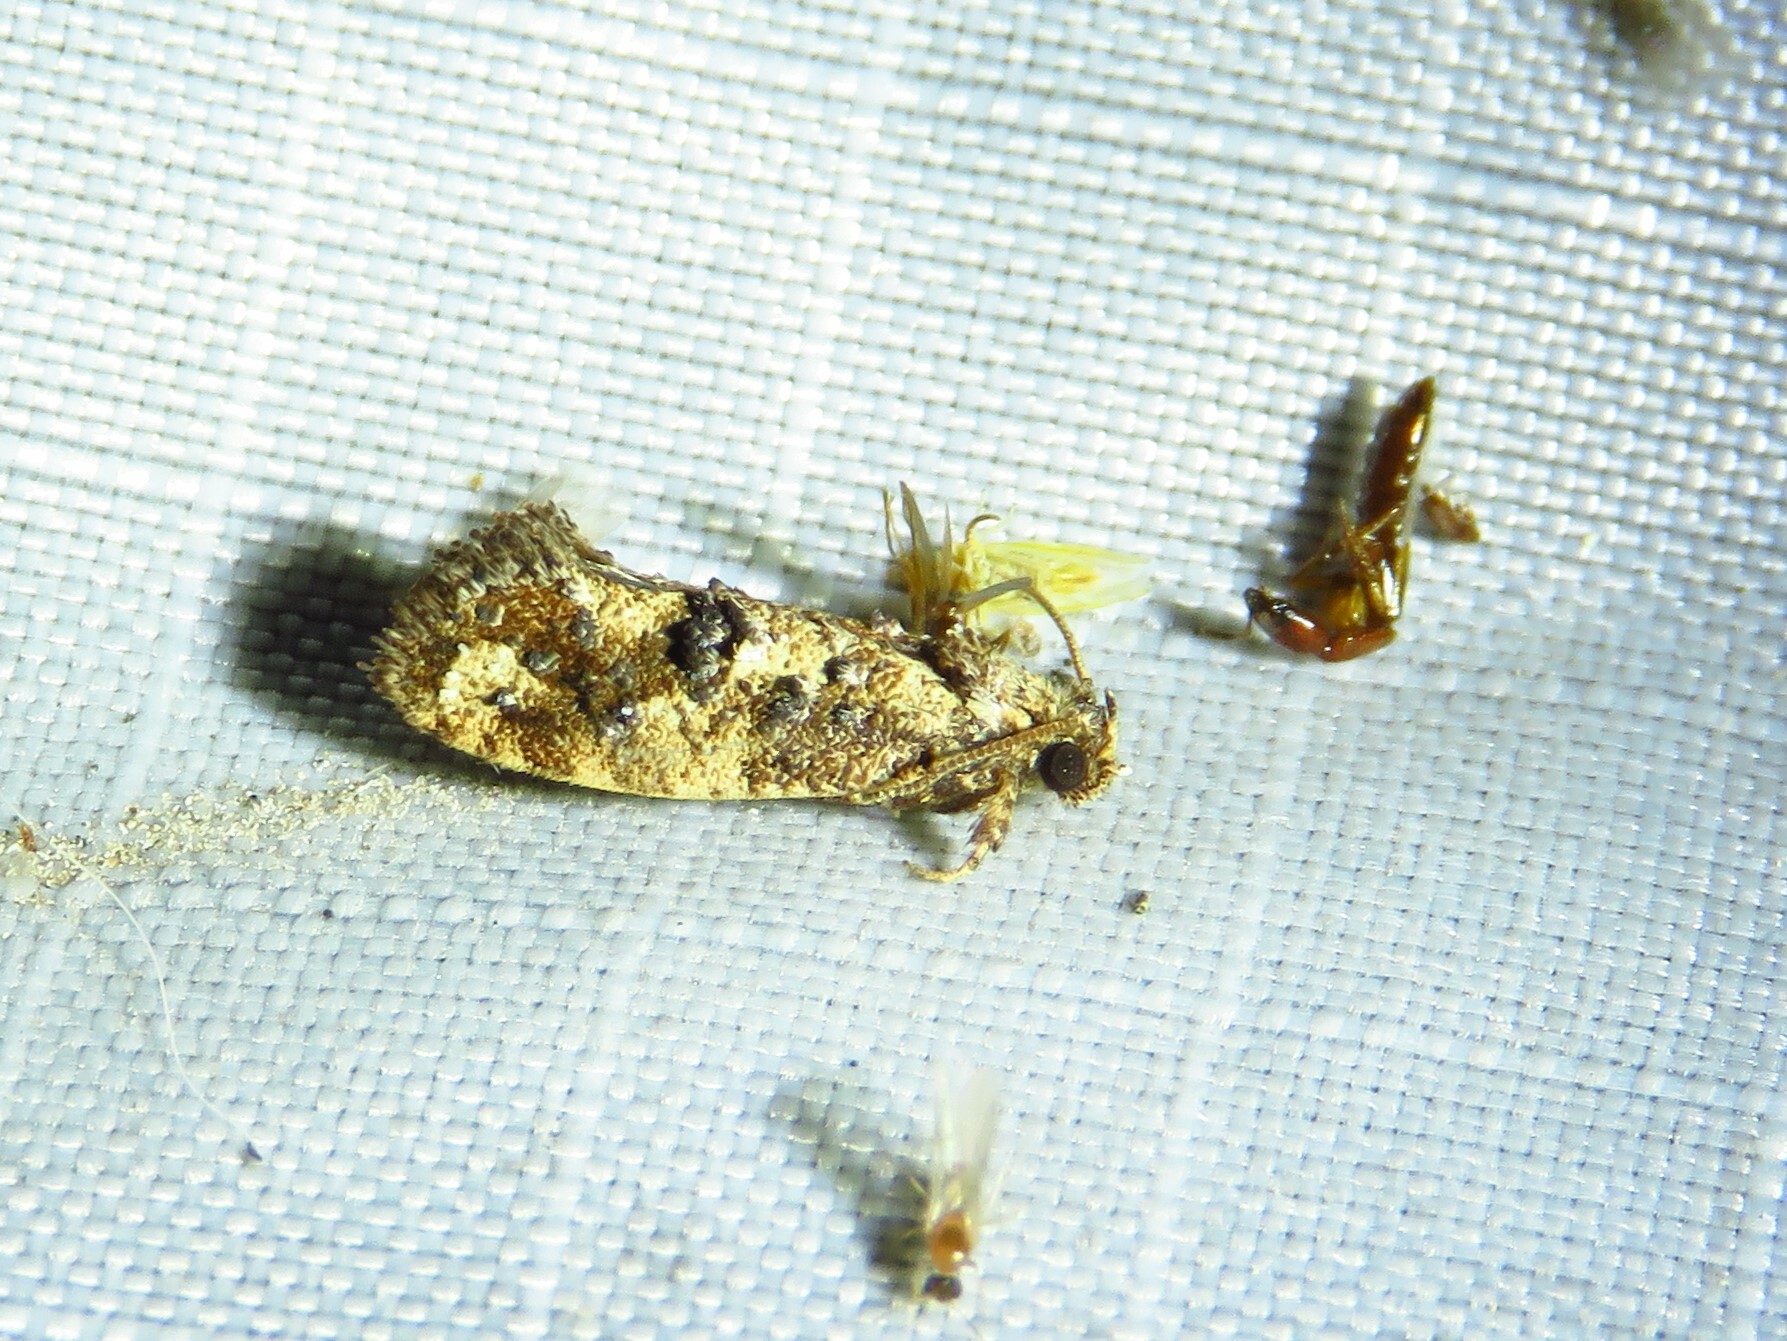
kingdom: Animalia
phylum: Arthropoda
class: Insecta
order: Lepidoptera
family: Tineidae
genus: Acrolophus
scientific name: Acrolophus cressoni
